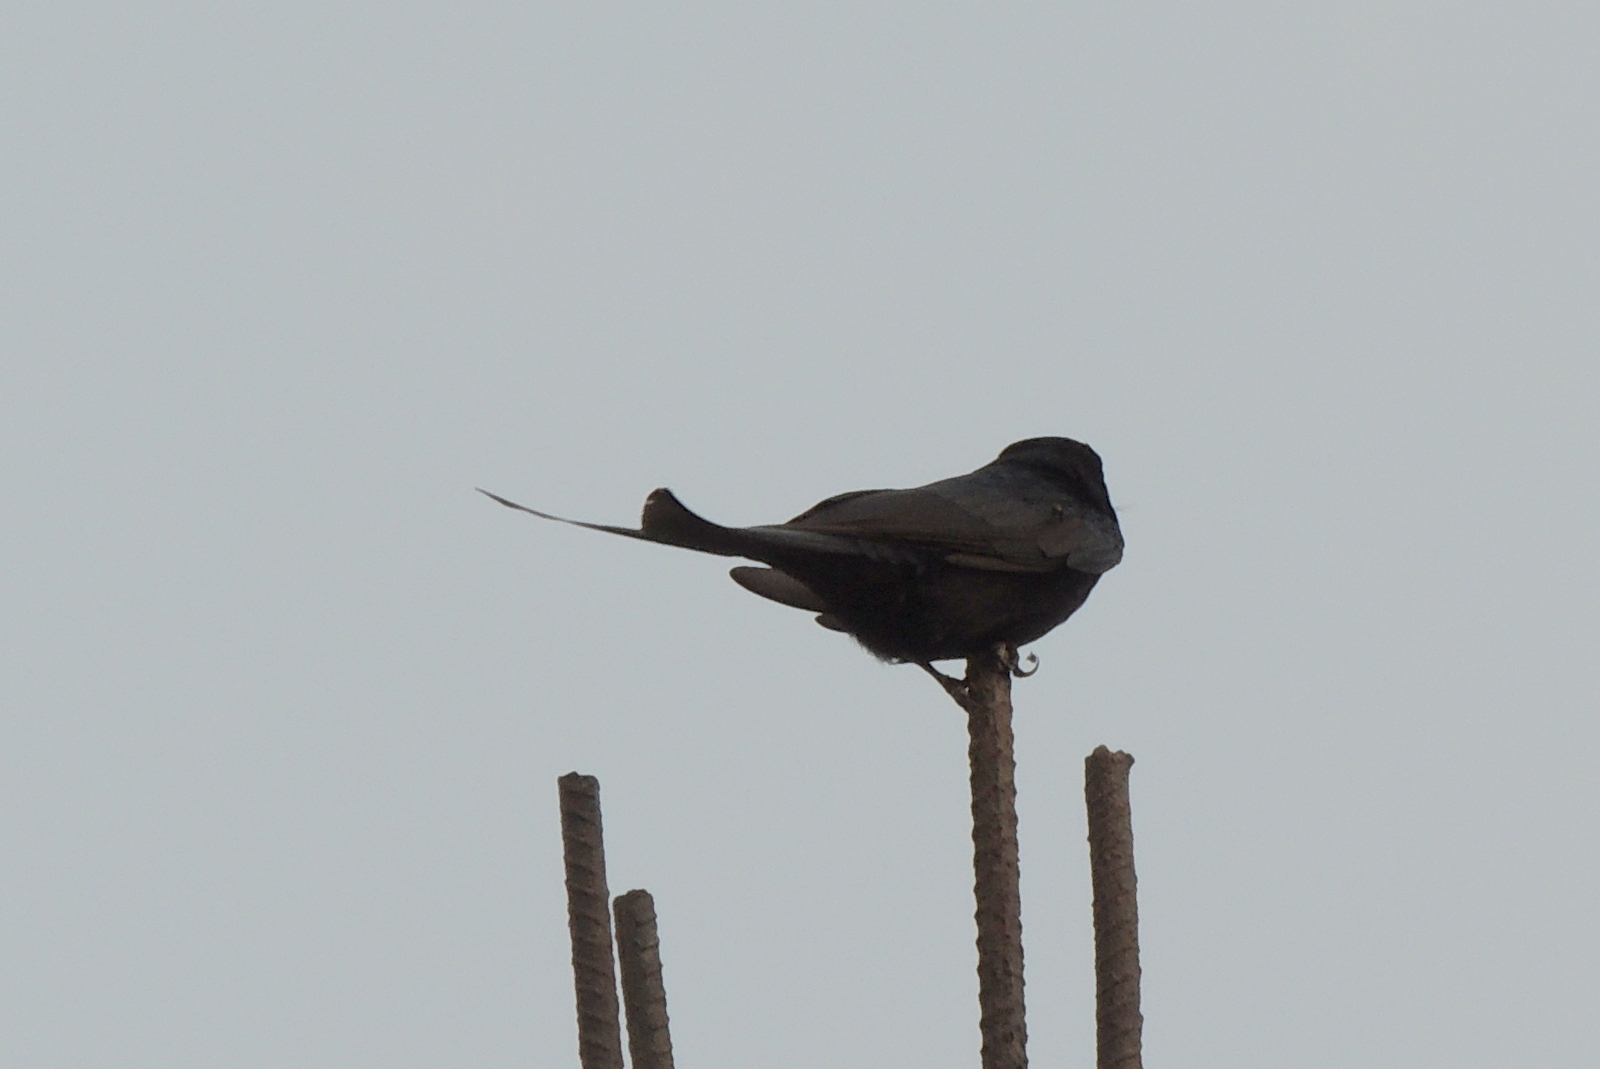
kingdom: Animalia
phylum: Chordata
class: Aves
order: Passeriformes
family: Dicruridae
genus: Dicrurus
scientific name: Dicrurus macrocercus
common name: Black drongo
